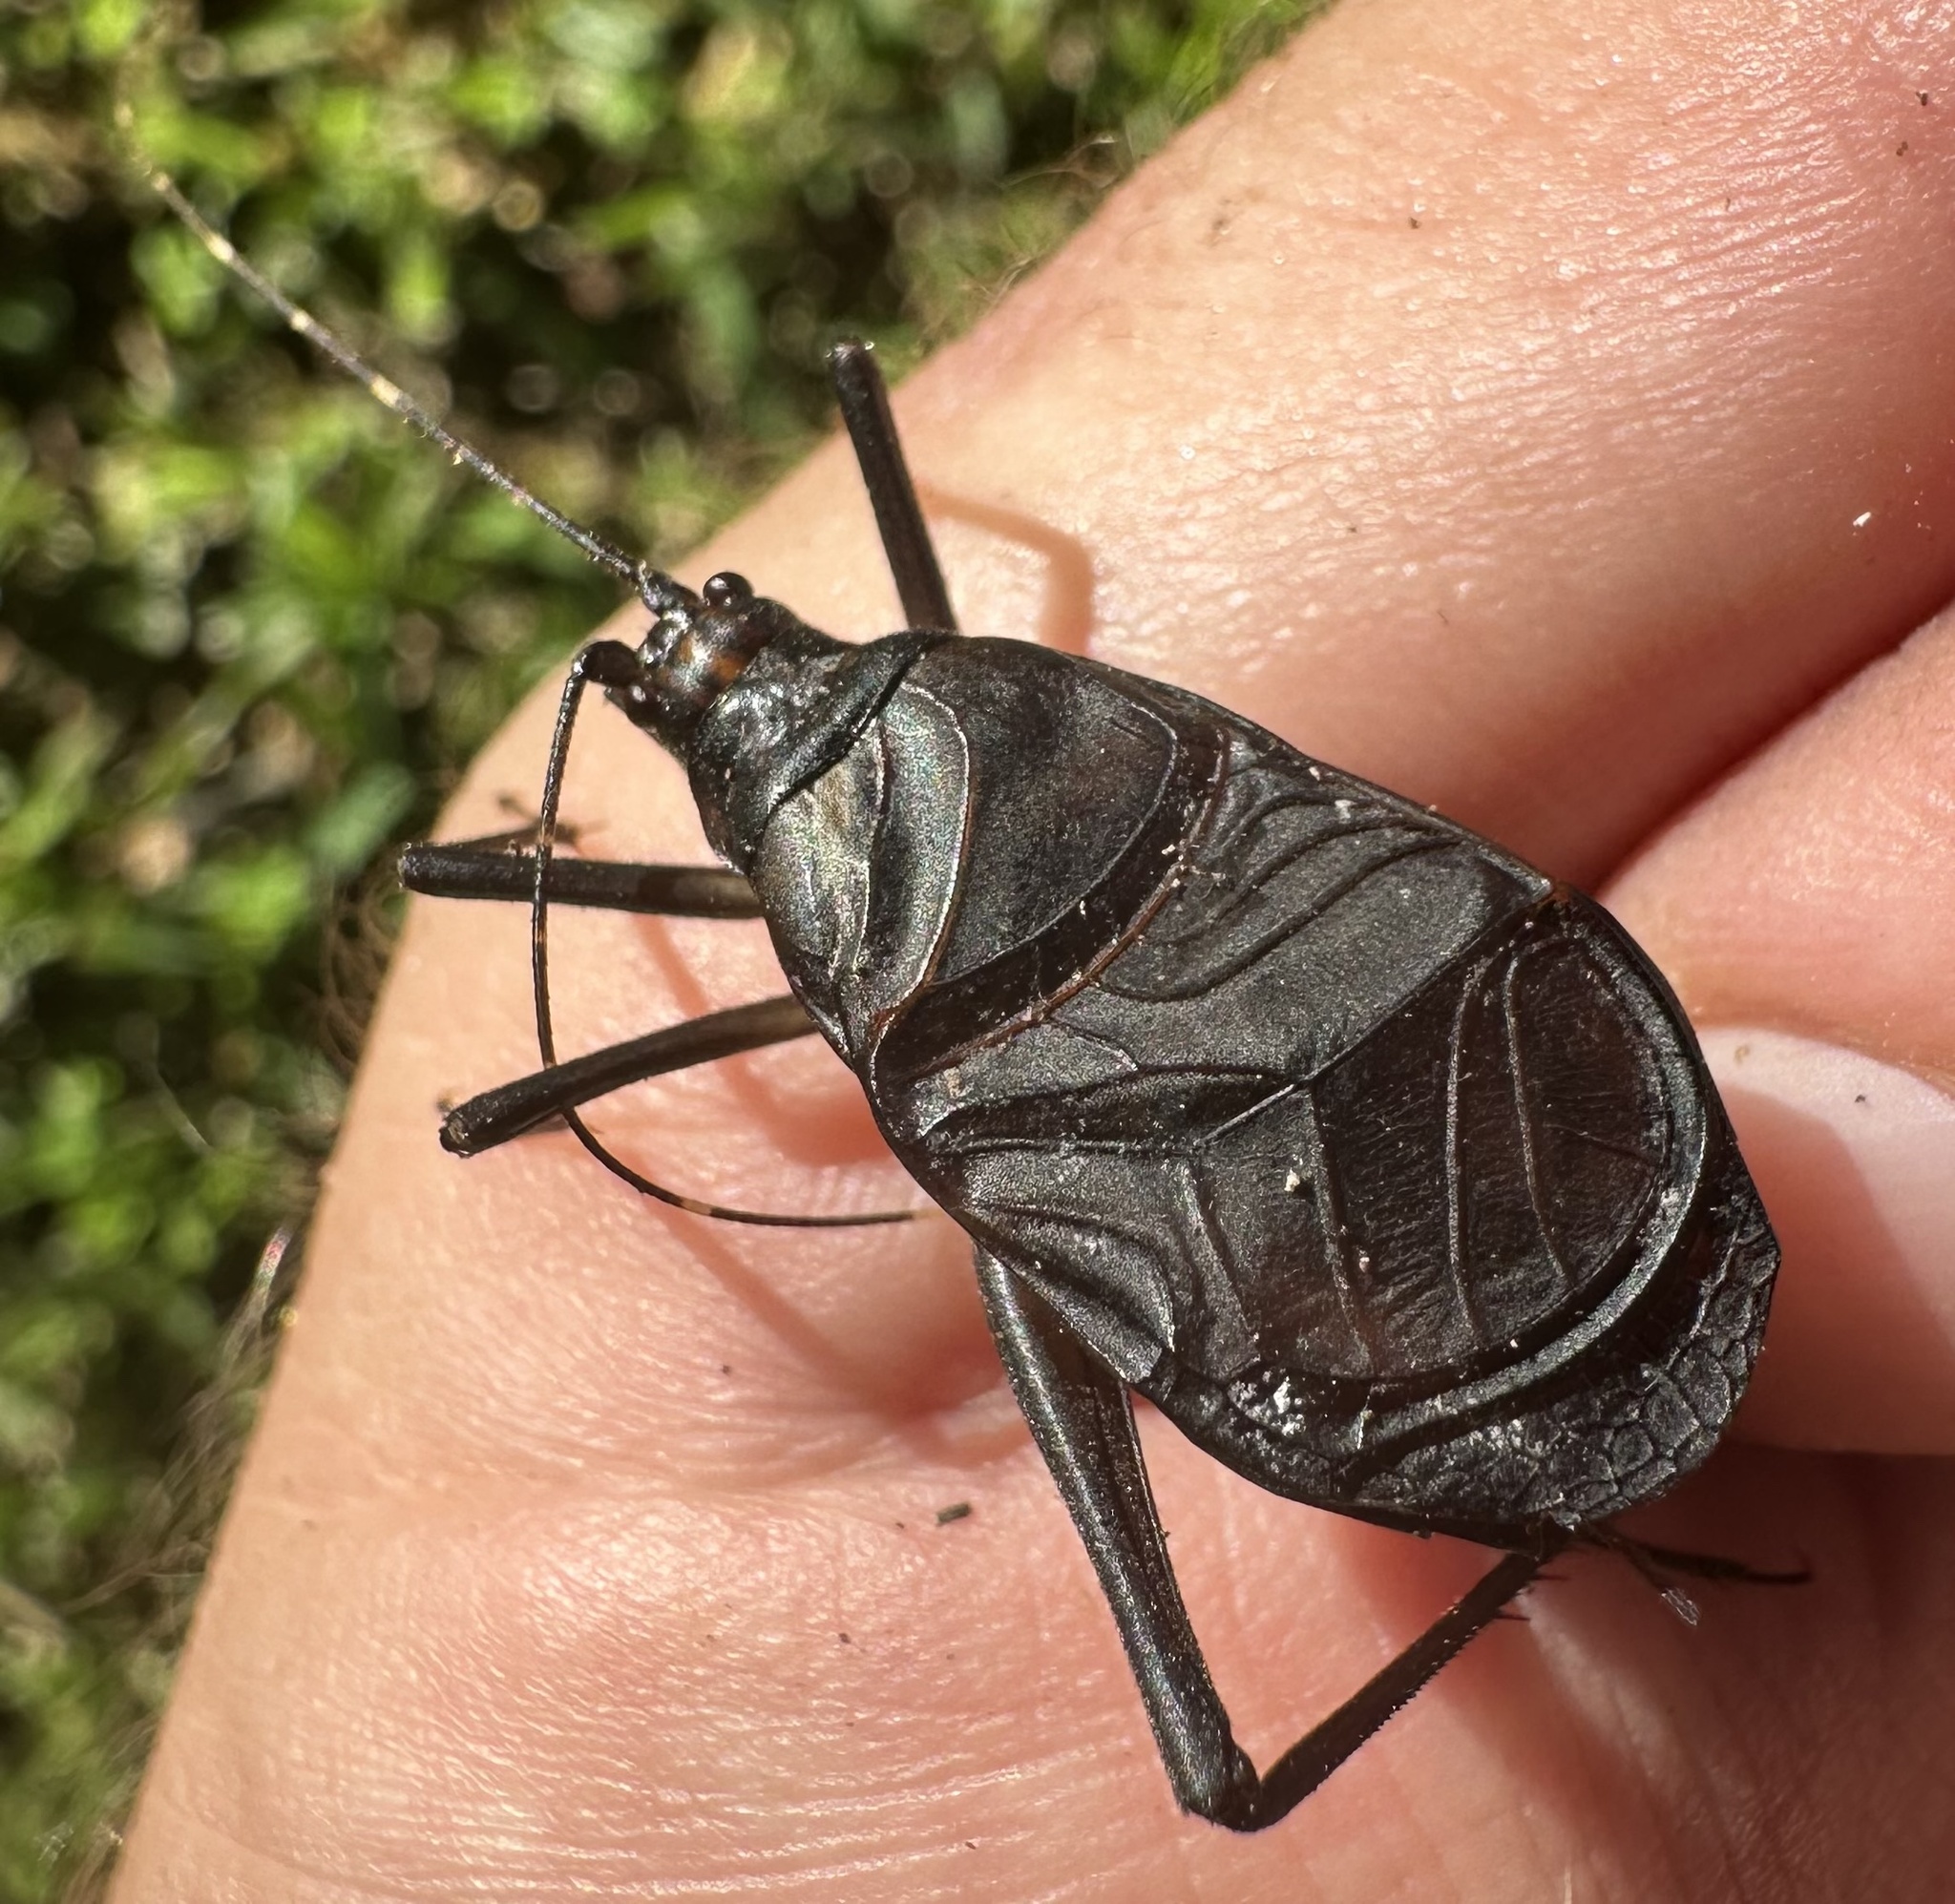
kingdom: Animalia
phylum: Arthropoda
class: Insecta
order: Orthoptera
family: Phalangopsidae
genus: Homoeogryllus
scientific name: Homoeogryllus orientalis
